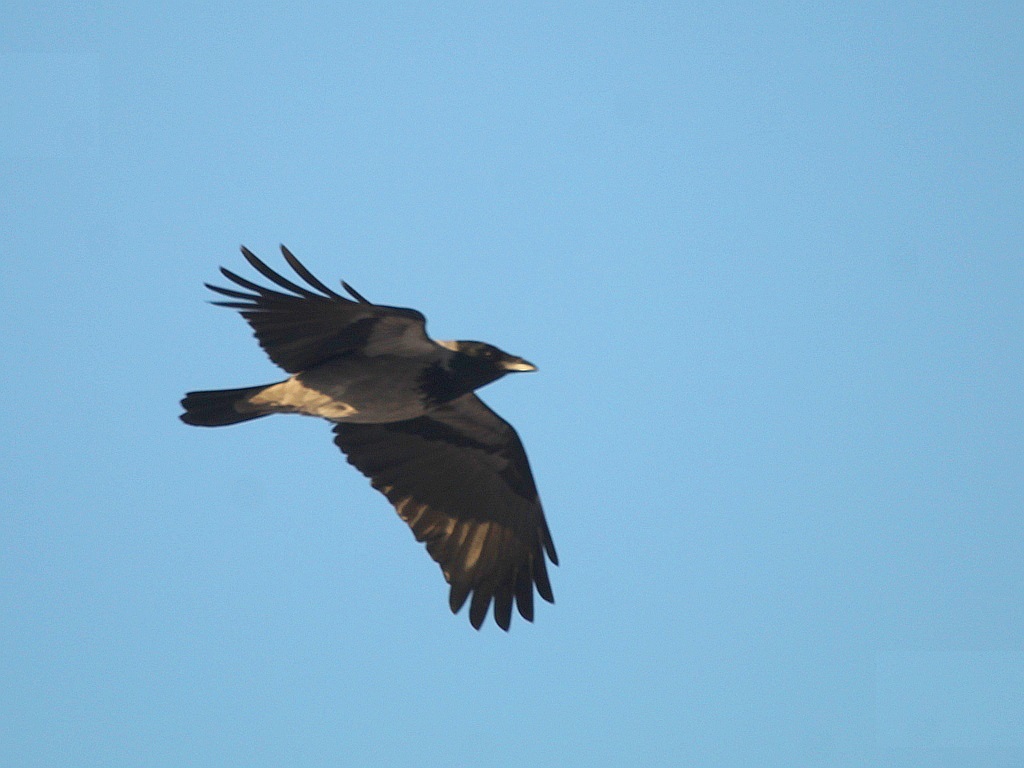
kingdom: Animalia
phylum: Chordata
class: Aves
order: Passeriformes
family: Corvidae
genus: Corvus
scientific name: Corvus cornix
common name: Hooded crow
